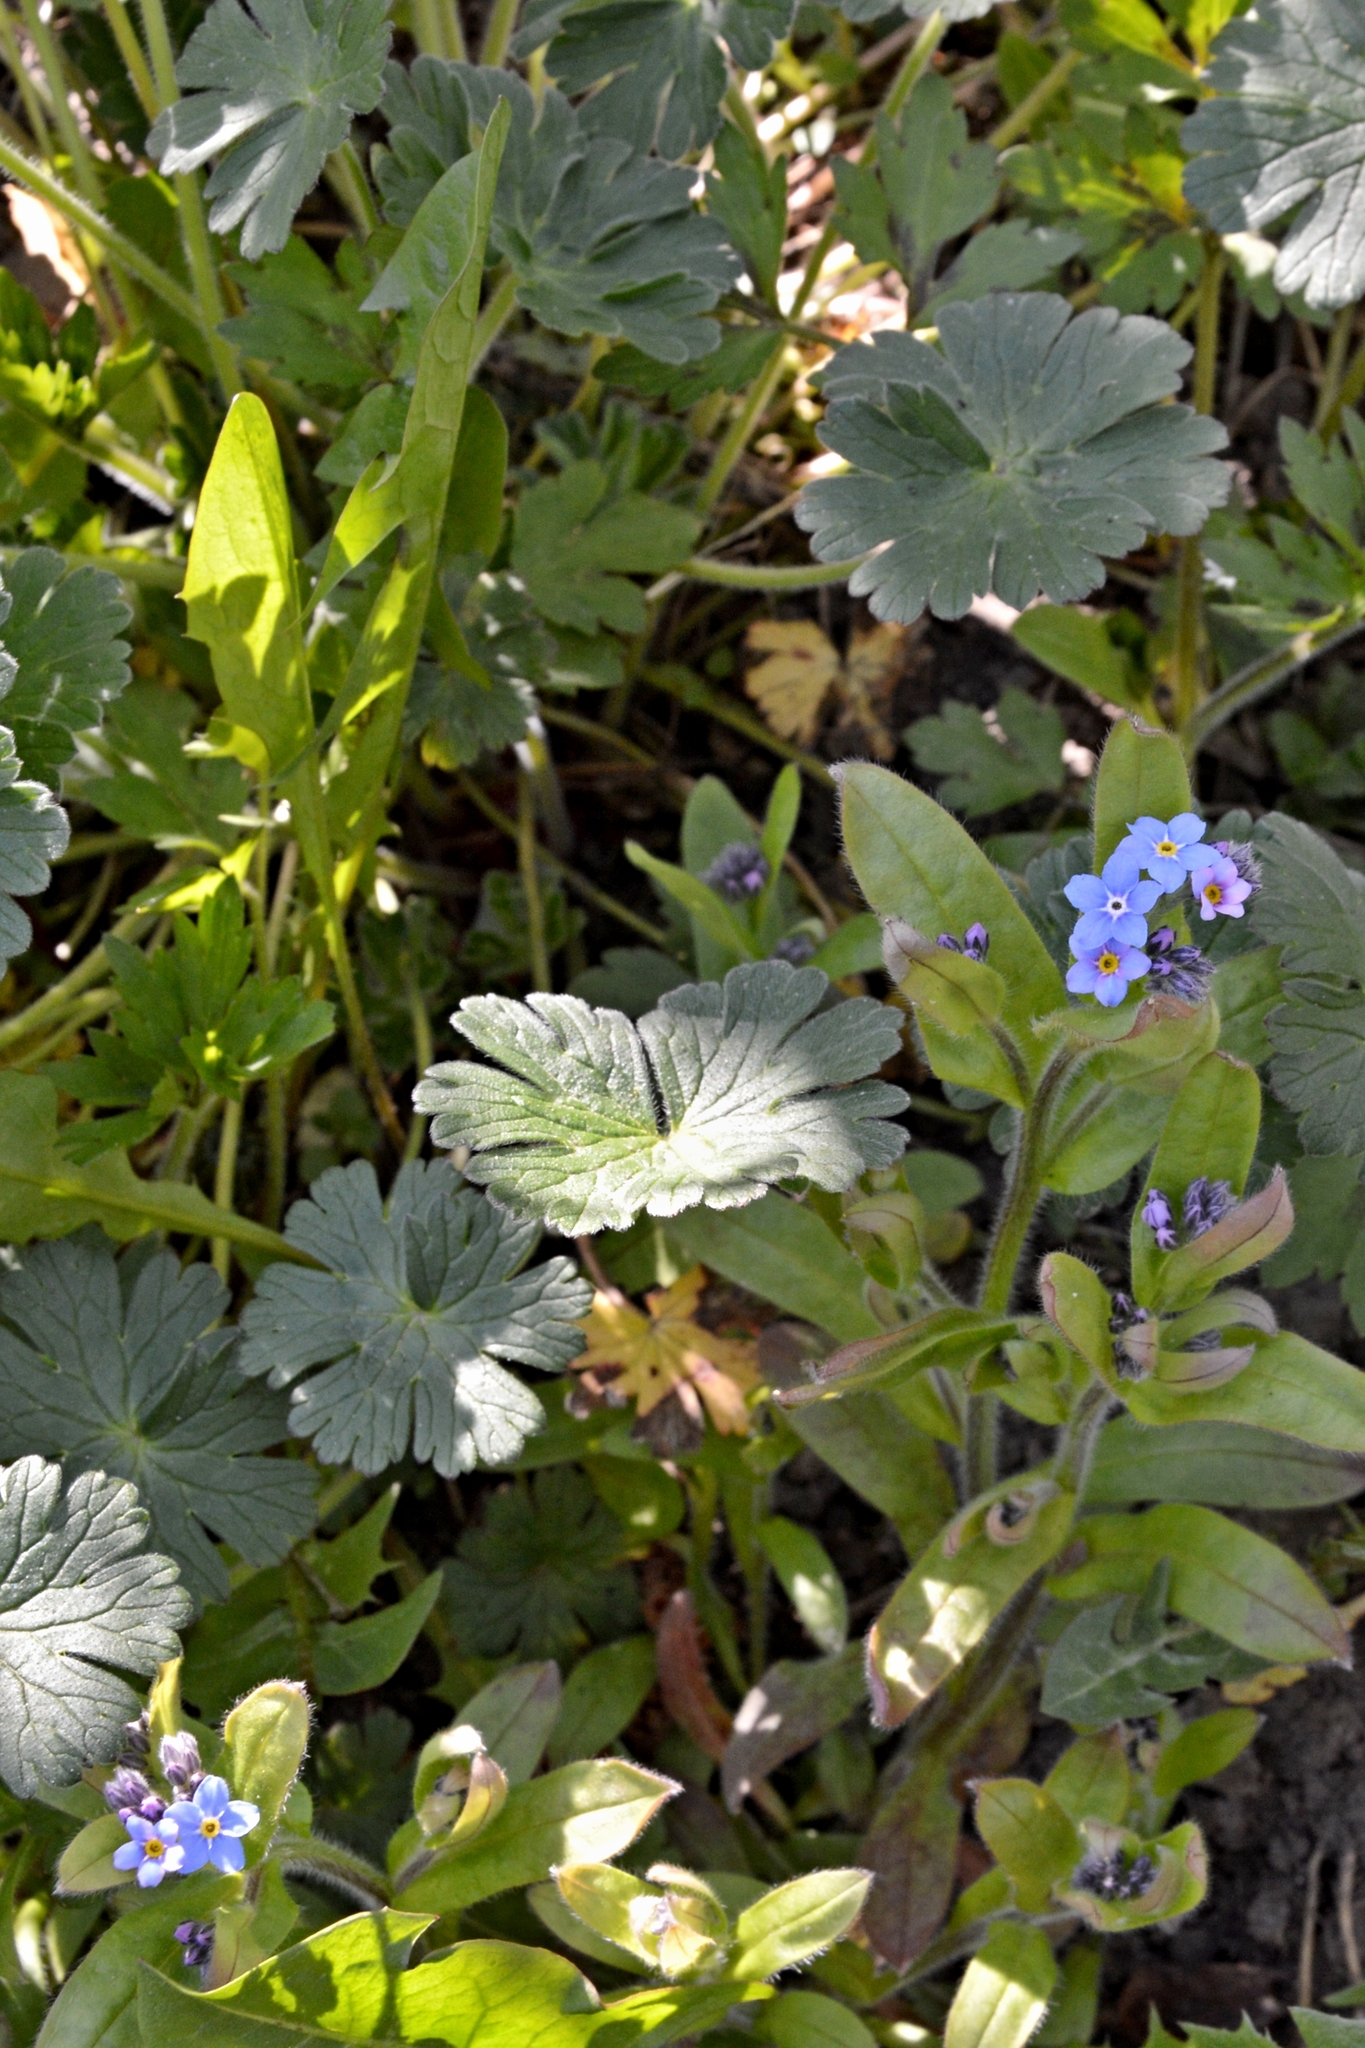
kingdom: Plantae
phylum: Tracheophyta
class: Magnoliopsida
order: Boraginales
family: Boraginaceae
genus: Myosotis
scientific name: Myosotis sylvatica
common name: Wood forget-me-not
